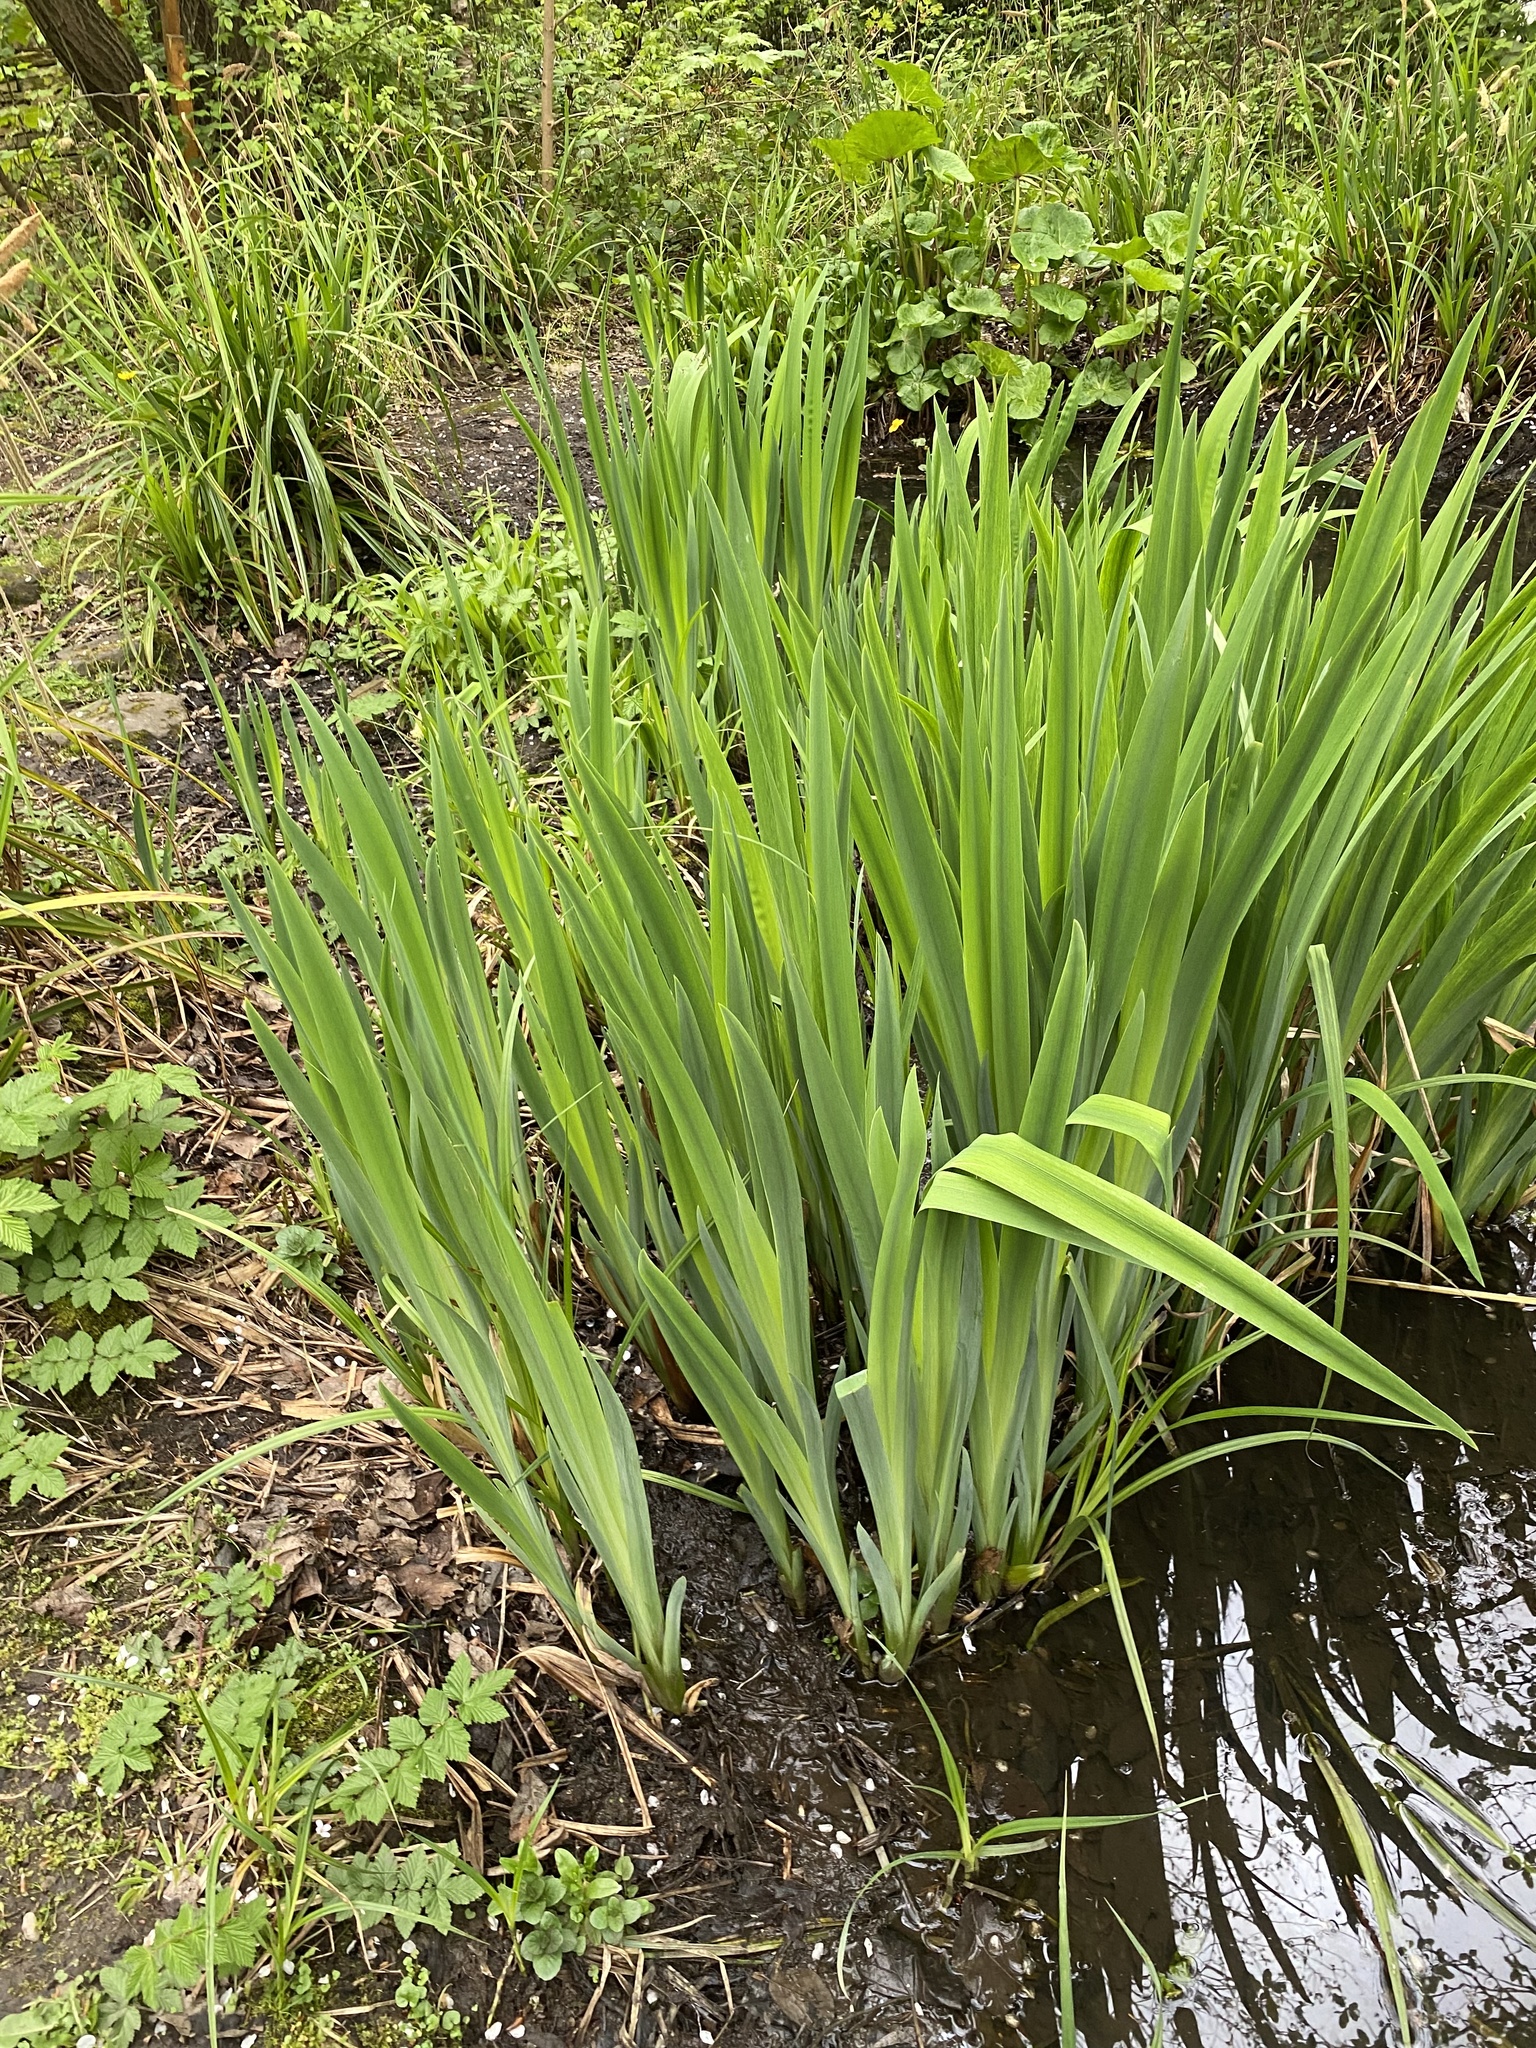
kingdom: Plantae
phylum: Tracheophyta
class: Liliopsida
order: Asparagales
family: Iridaceae
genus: Iris
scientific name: Iris pseudacorus
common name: Yellow flag
